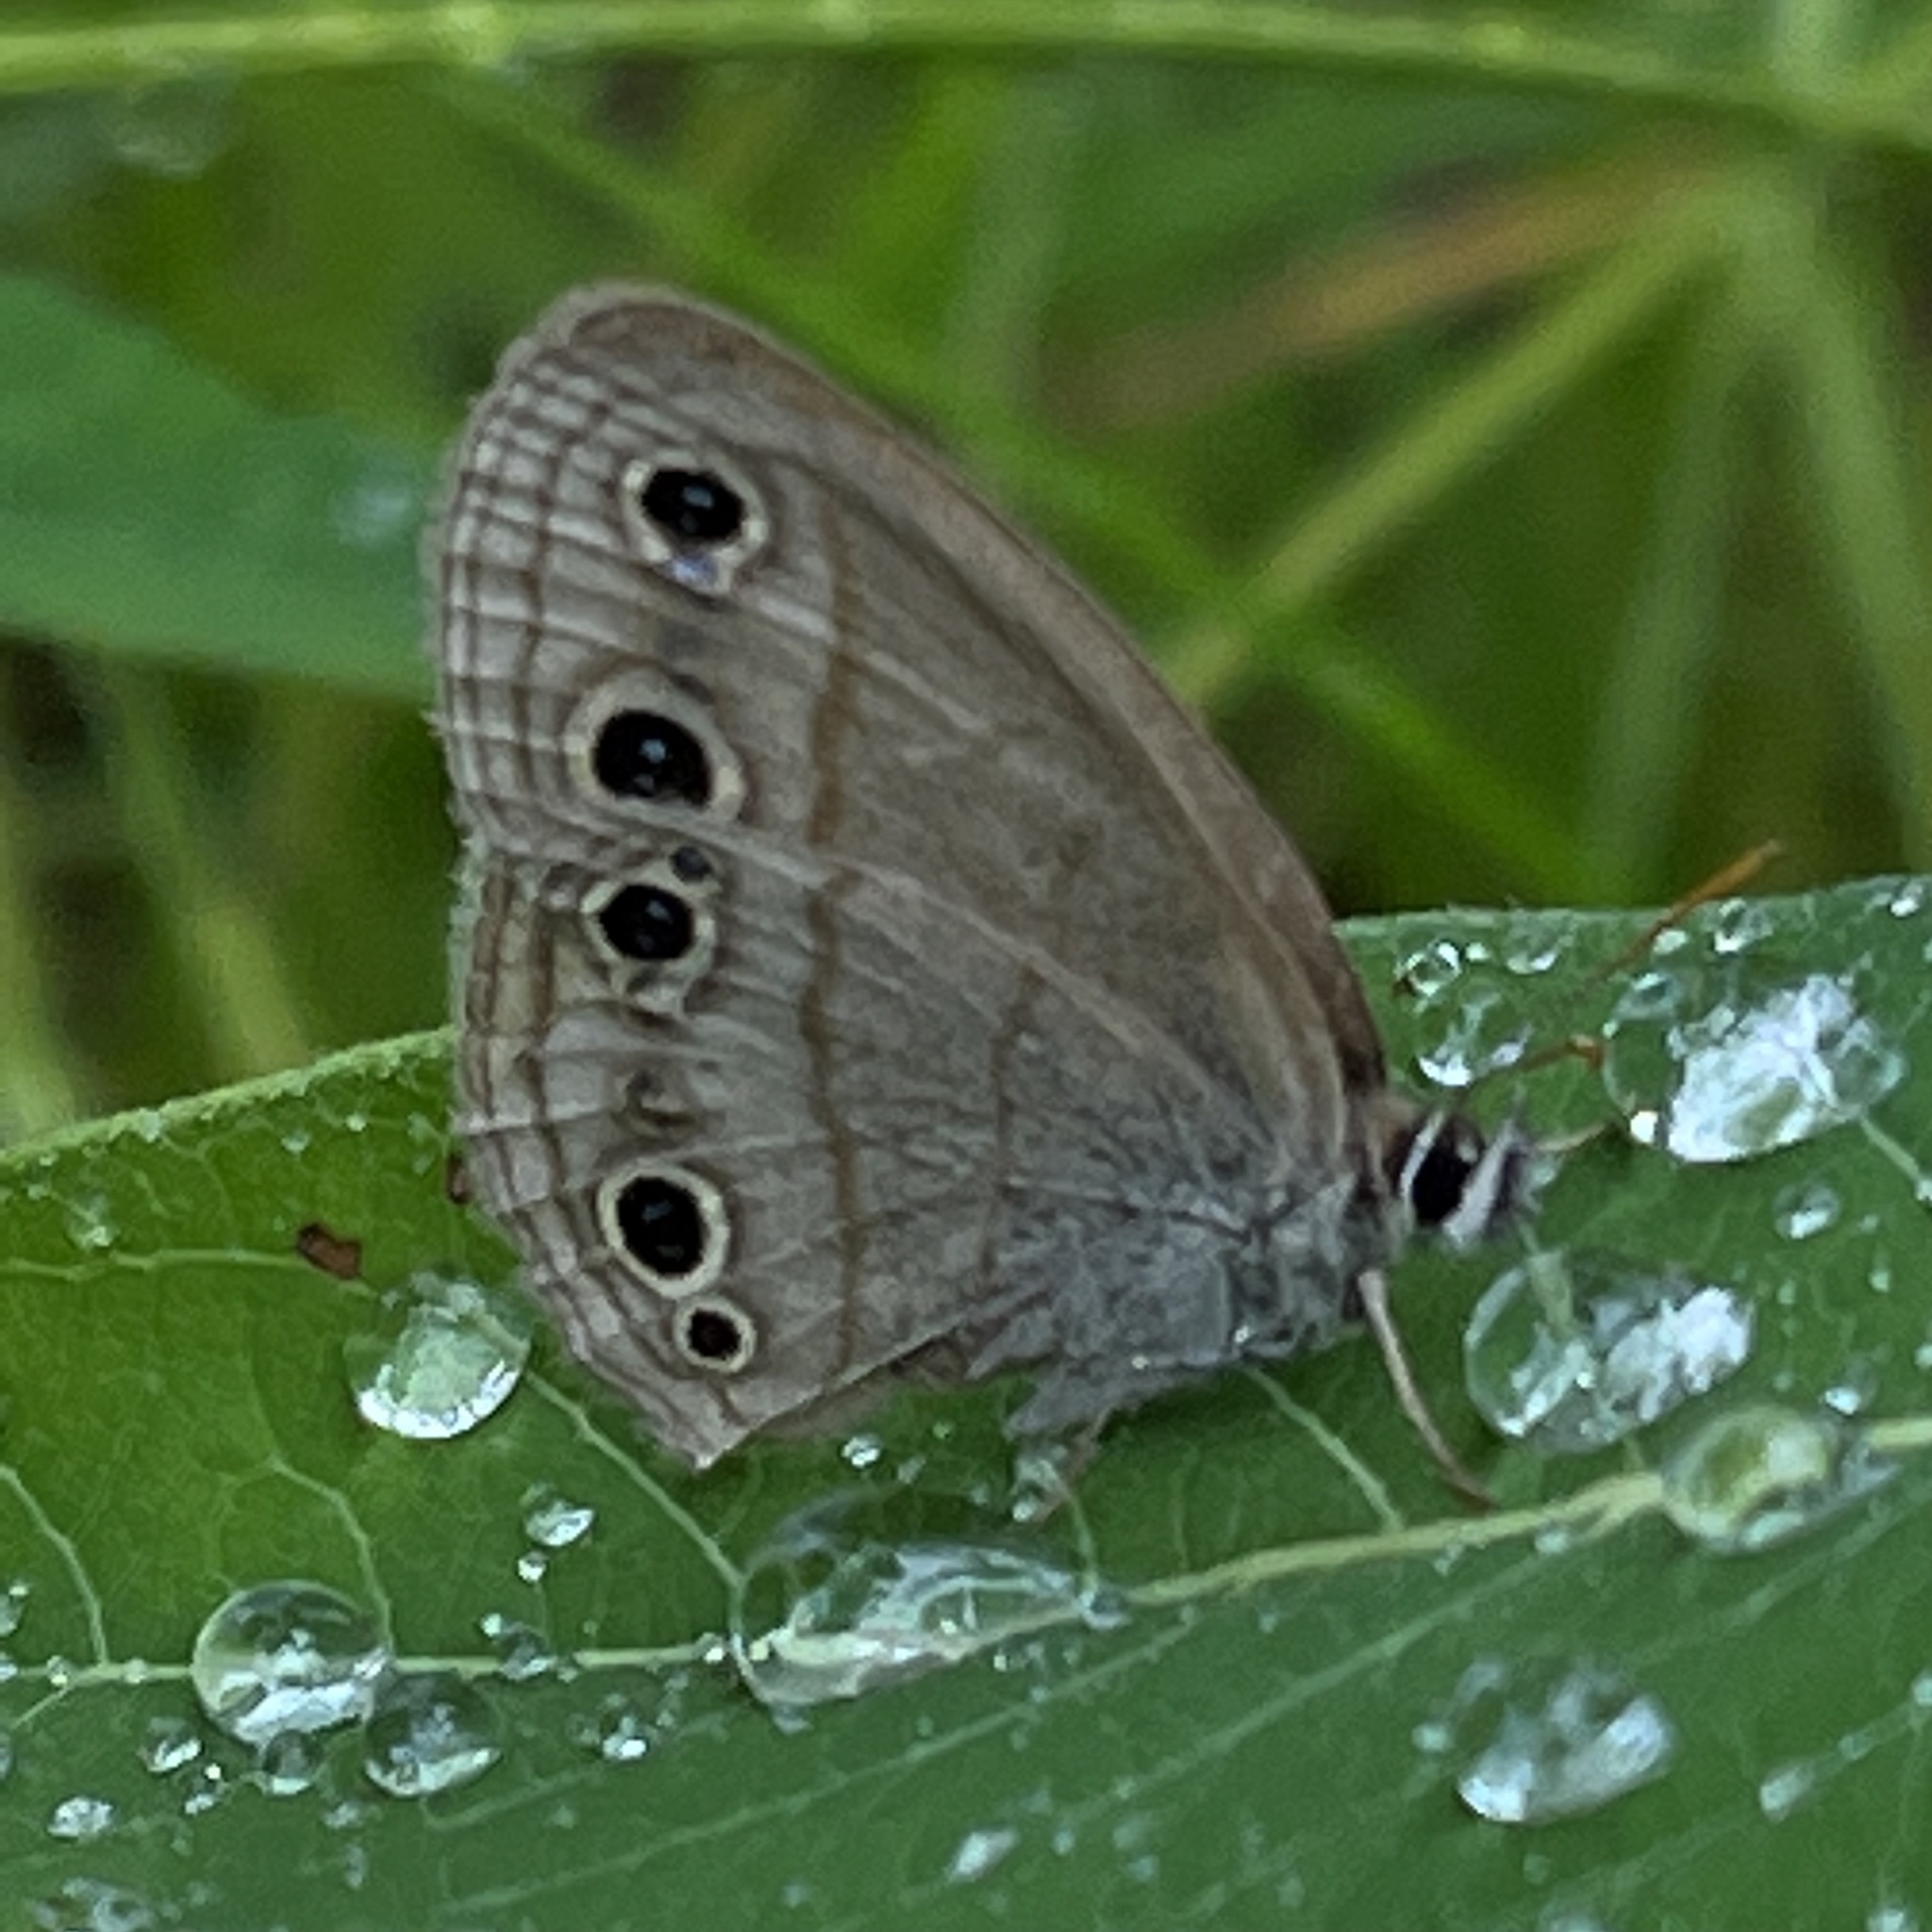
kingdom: Animalia
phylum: Arthropoda
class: Insecta
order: Lepidoptera
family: Nymphalidae
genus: Euptychia
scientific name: Euptychia cymela
